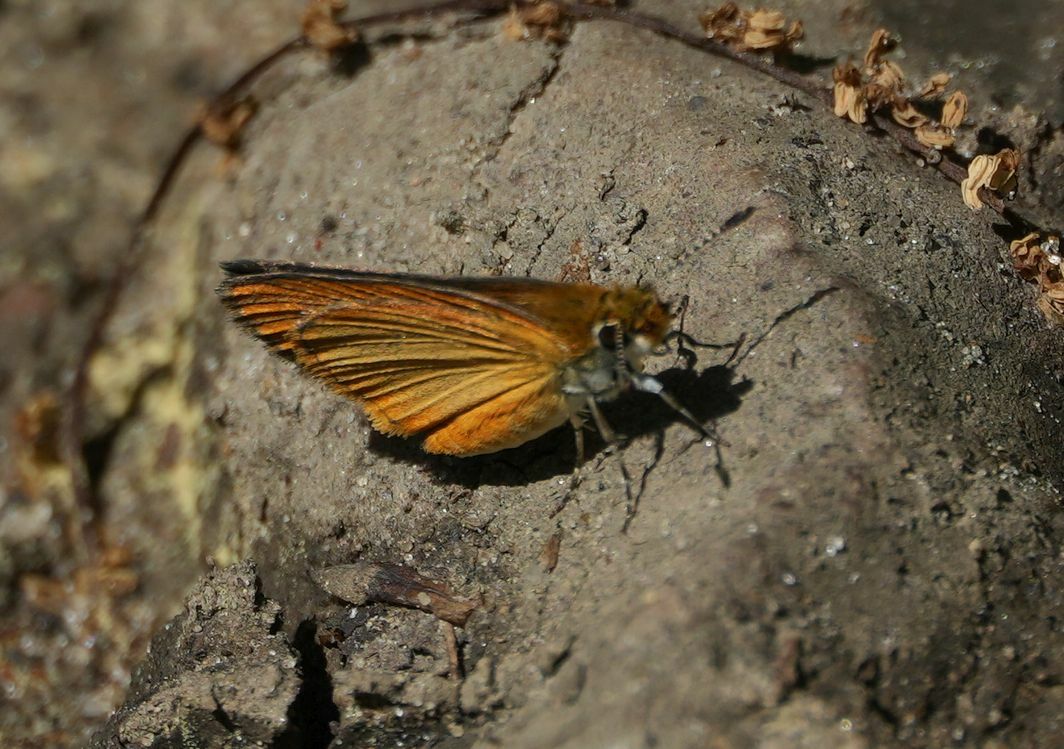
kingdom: Animalia
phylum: Arthropoda
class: Insecta
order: Lepidoptera
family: Hesperiidae
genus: Ancyloxypha
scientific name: Ancyloxypha numitor
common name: Least skipper
